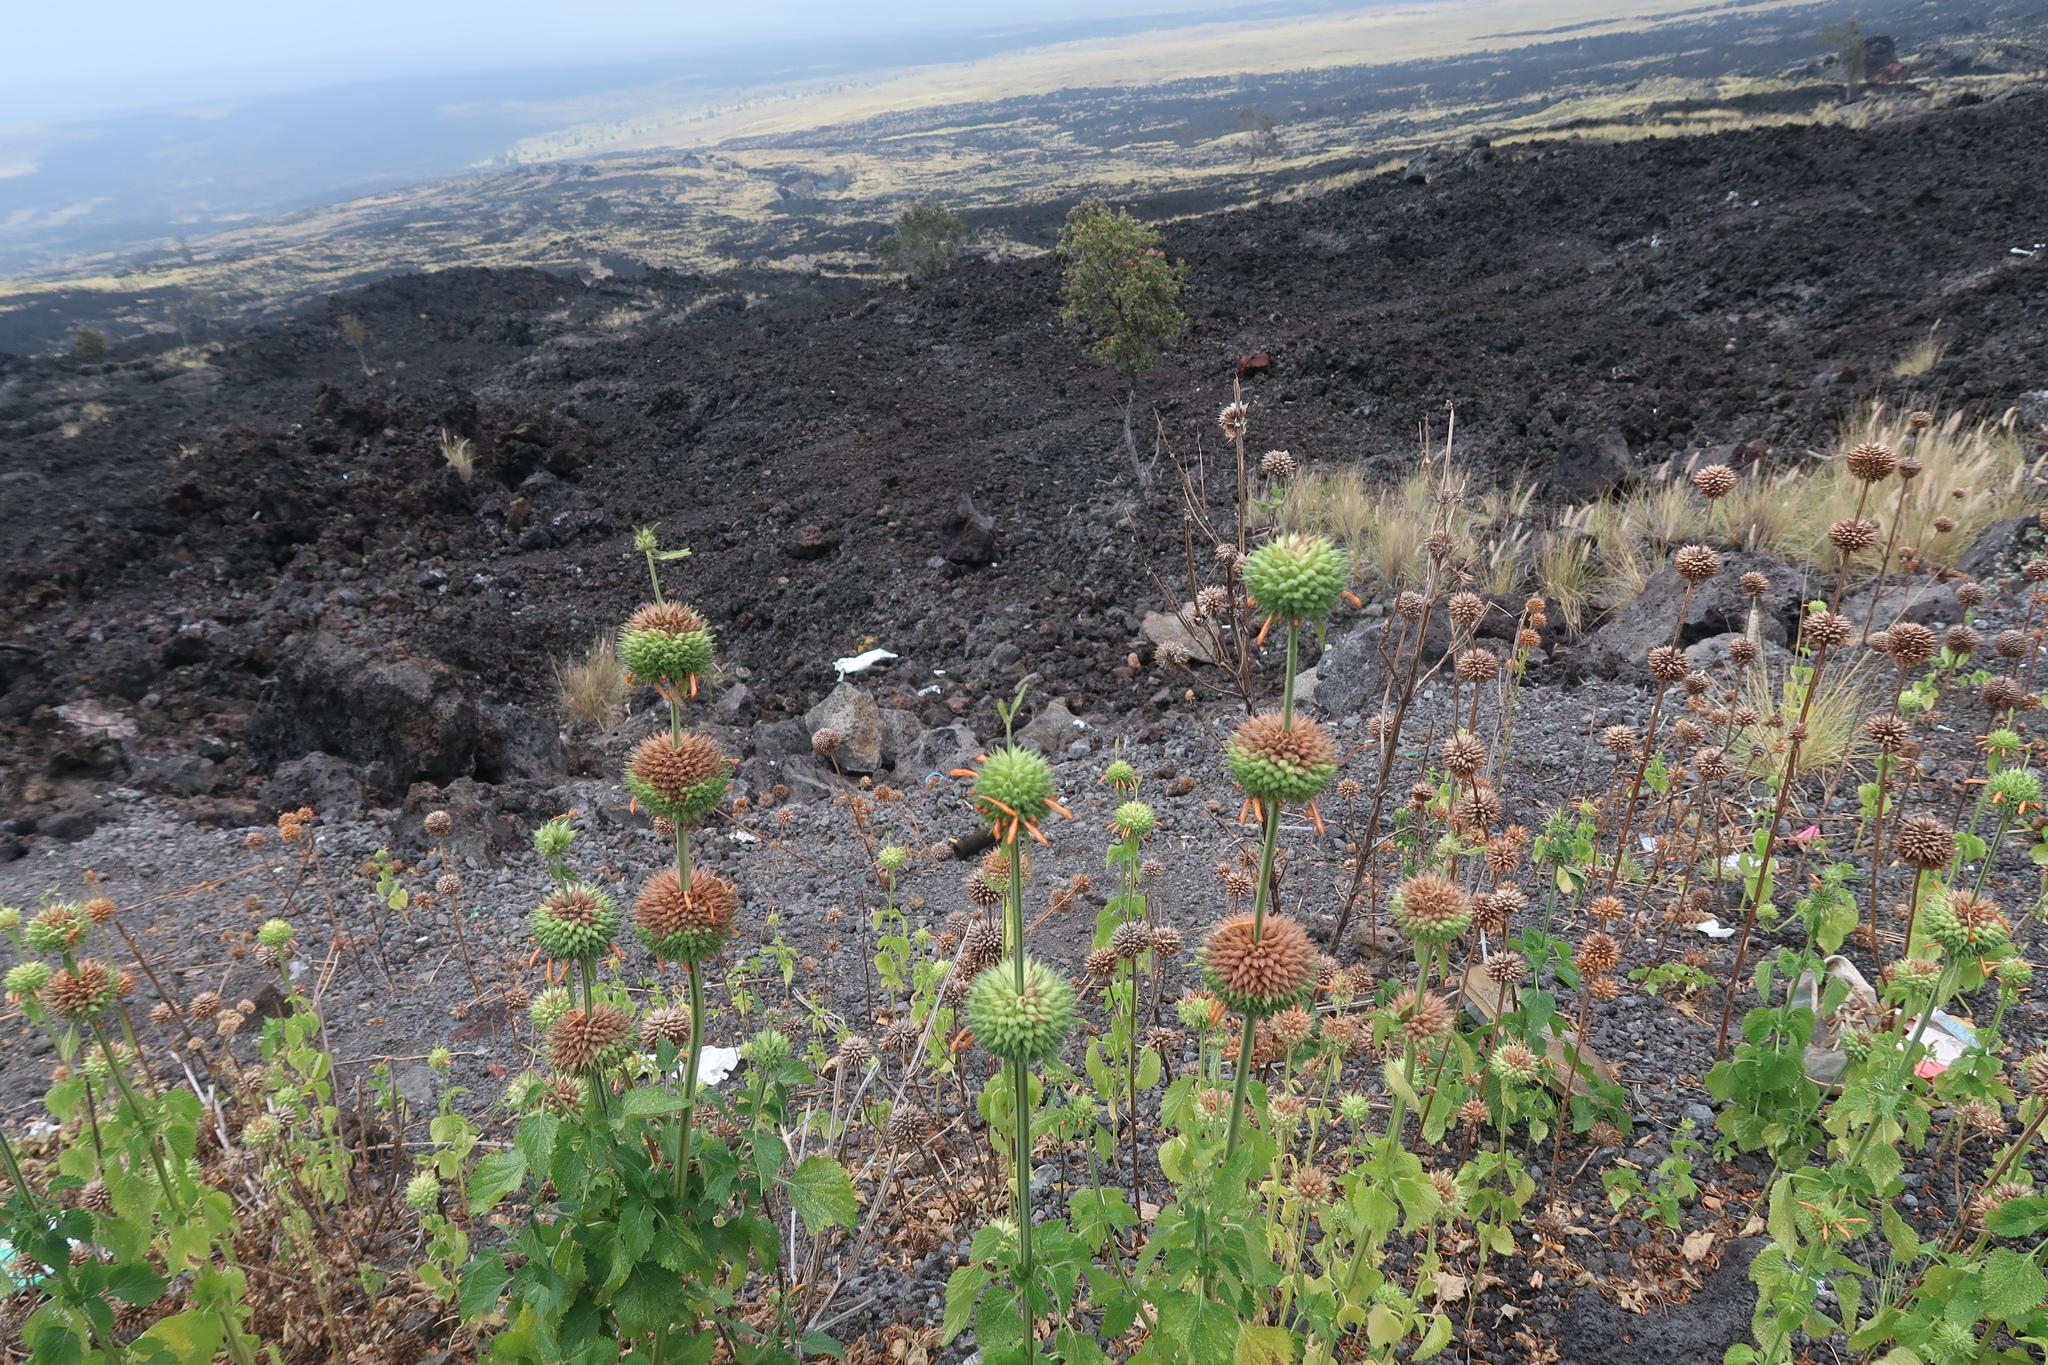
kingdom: Plantae
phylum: Tracheophyta
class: Magnoliopsida
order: Lamiales
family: Lamiaceae
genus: Leonotis
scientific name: Leonotis nepetifolia
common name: Christmas candlestick
